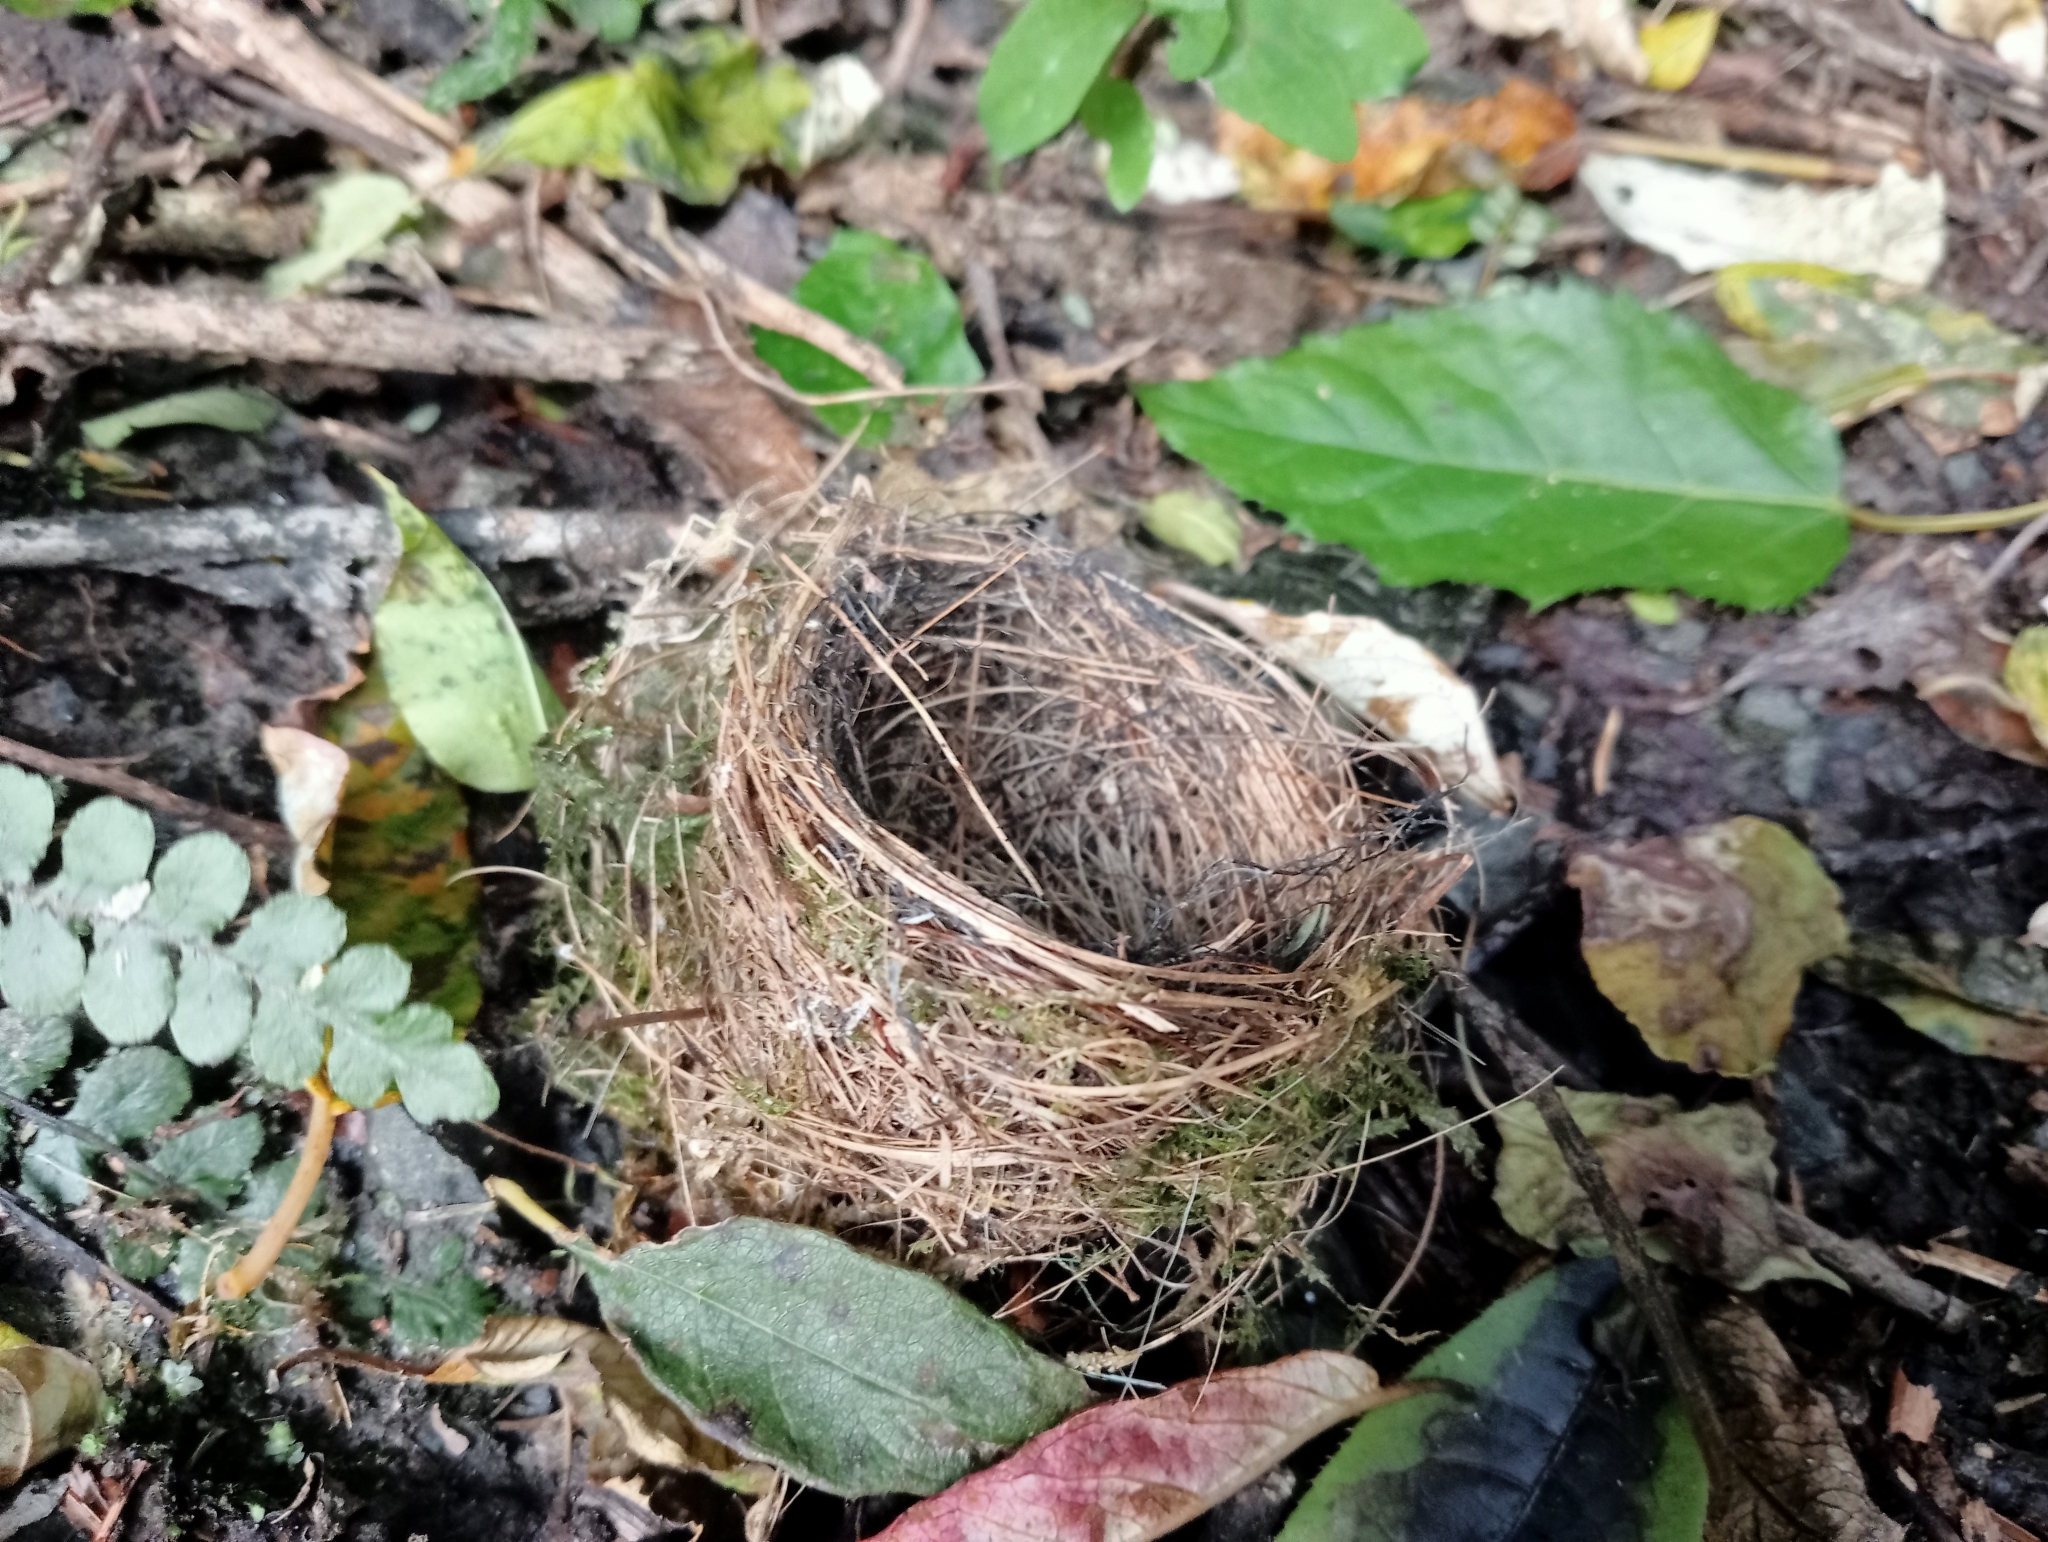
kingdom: Animalia
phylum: Chordata
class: Aves
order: Passeriformes
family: Zosteropidae
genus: Zosterops
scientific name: Zosterops lateralis
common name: Silvereye
